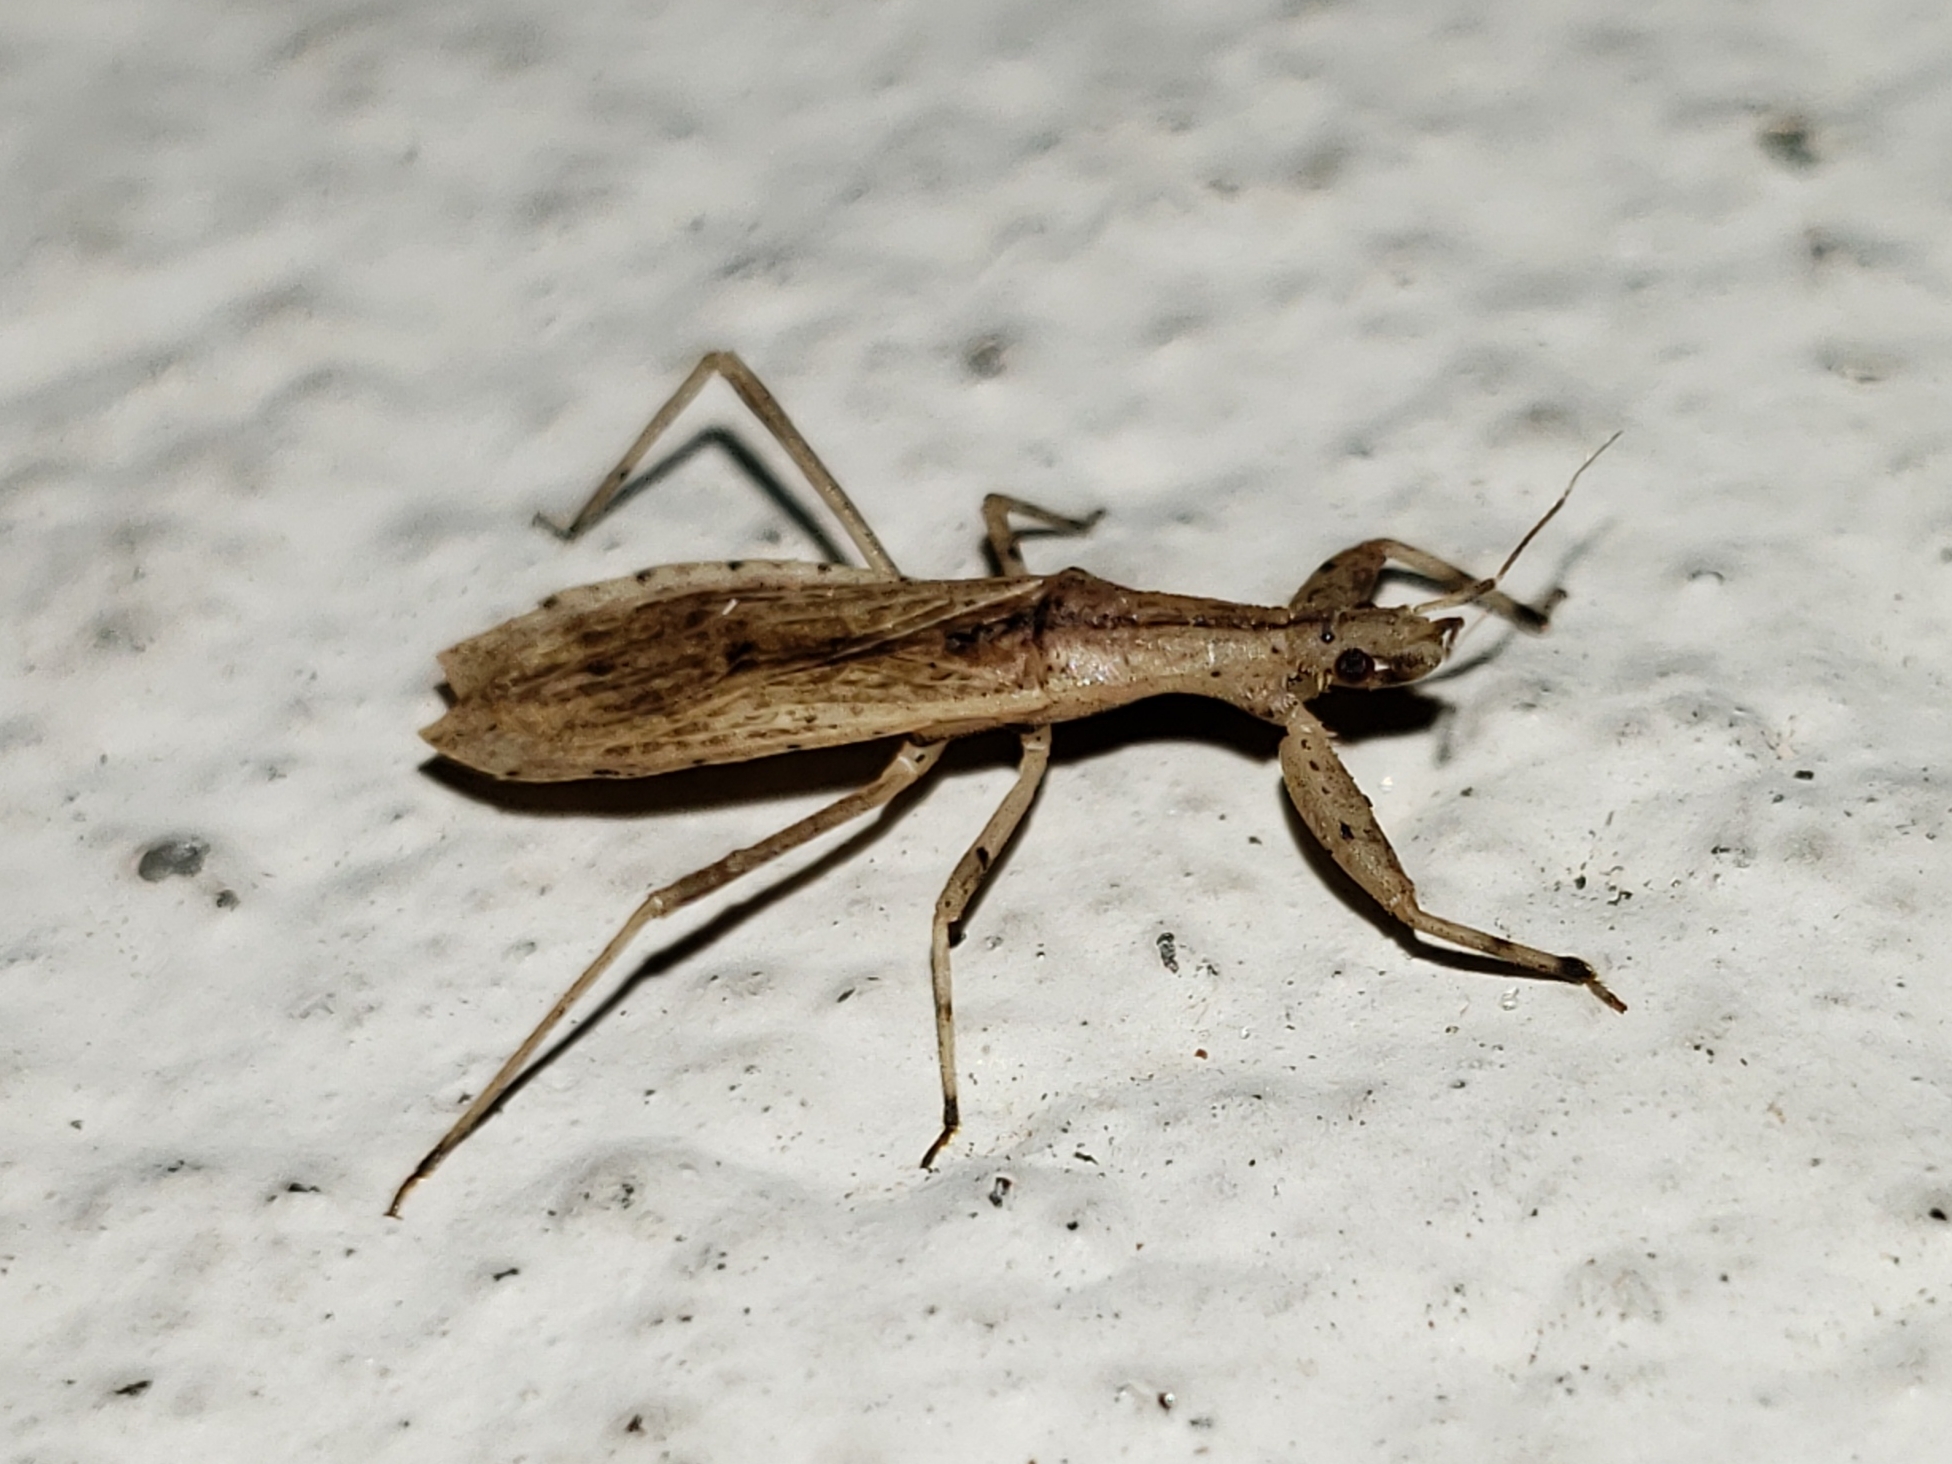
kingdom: Animalia
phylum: Arthropoda
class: Insecta
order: Hemiptera
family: Reduviidae
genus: Ctenotrachelus
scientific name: Ctenotrachelus shermani
